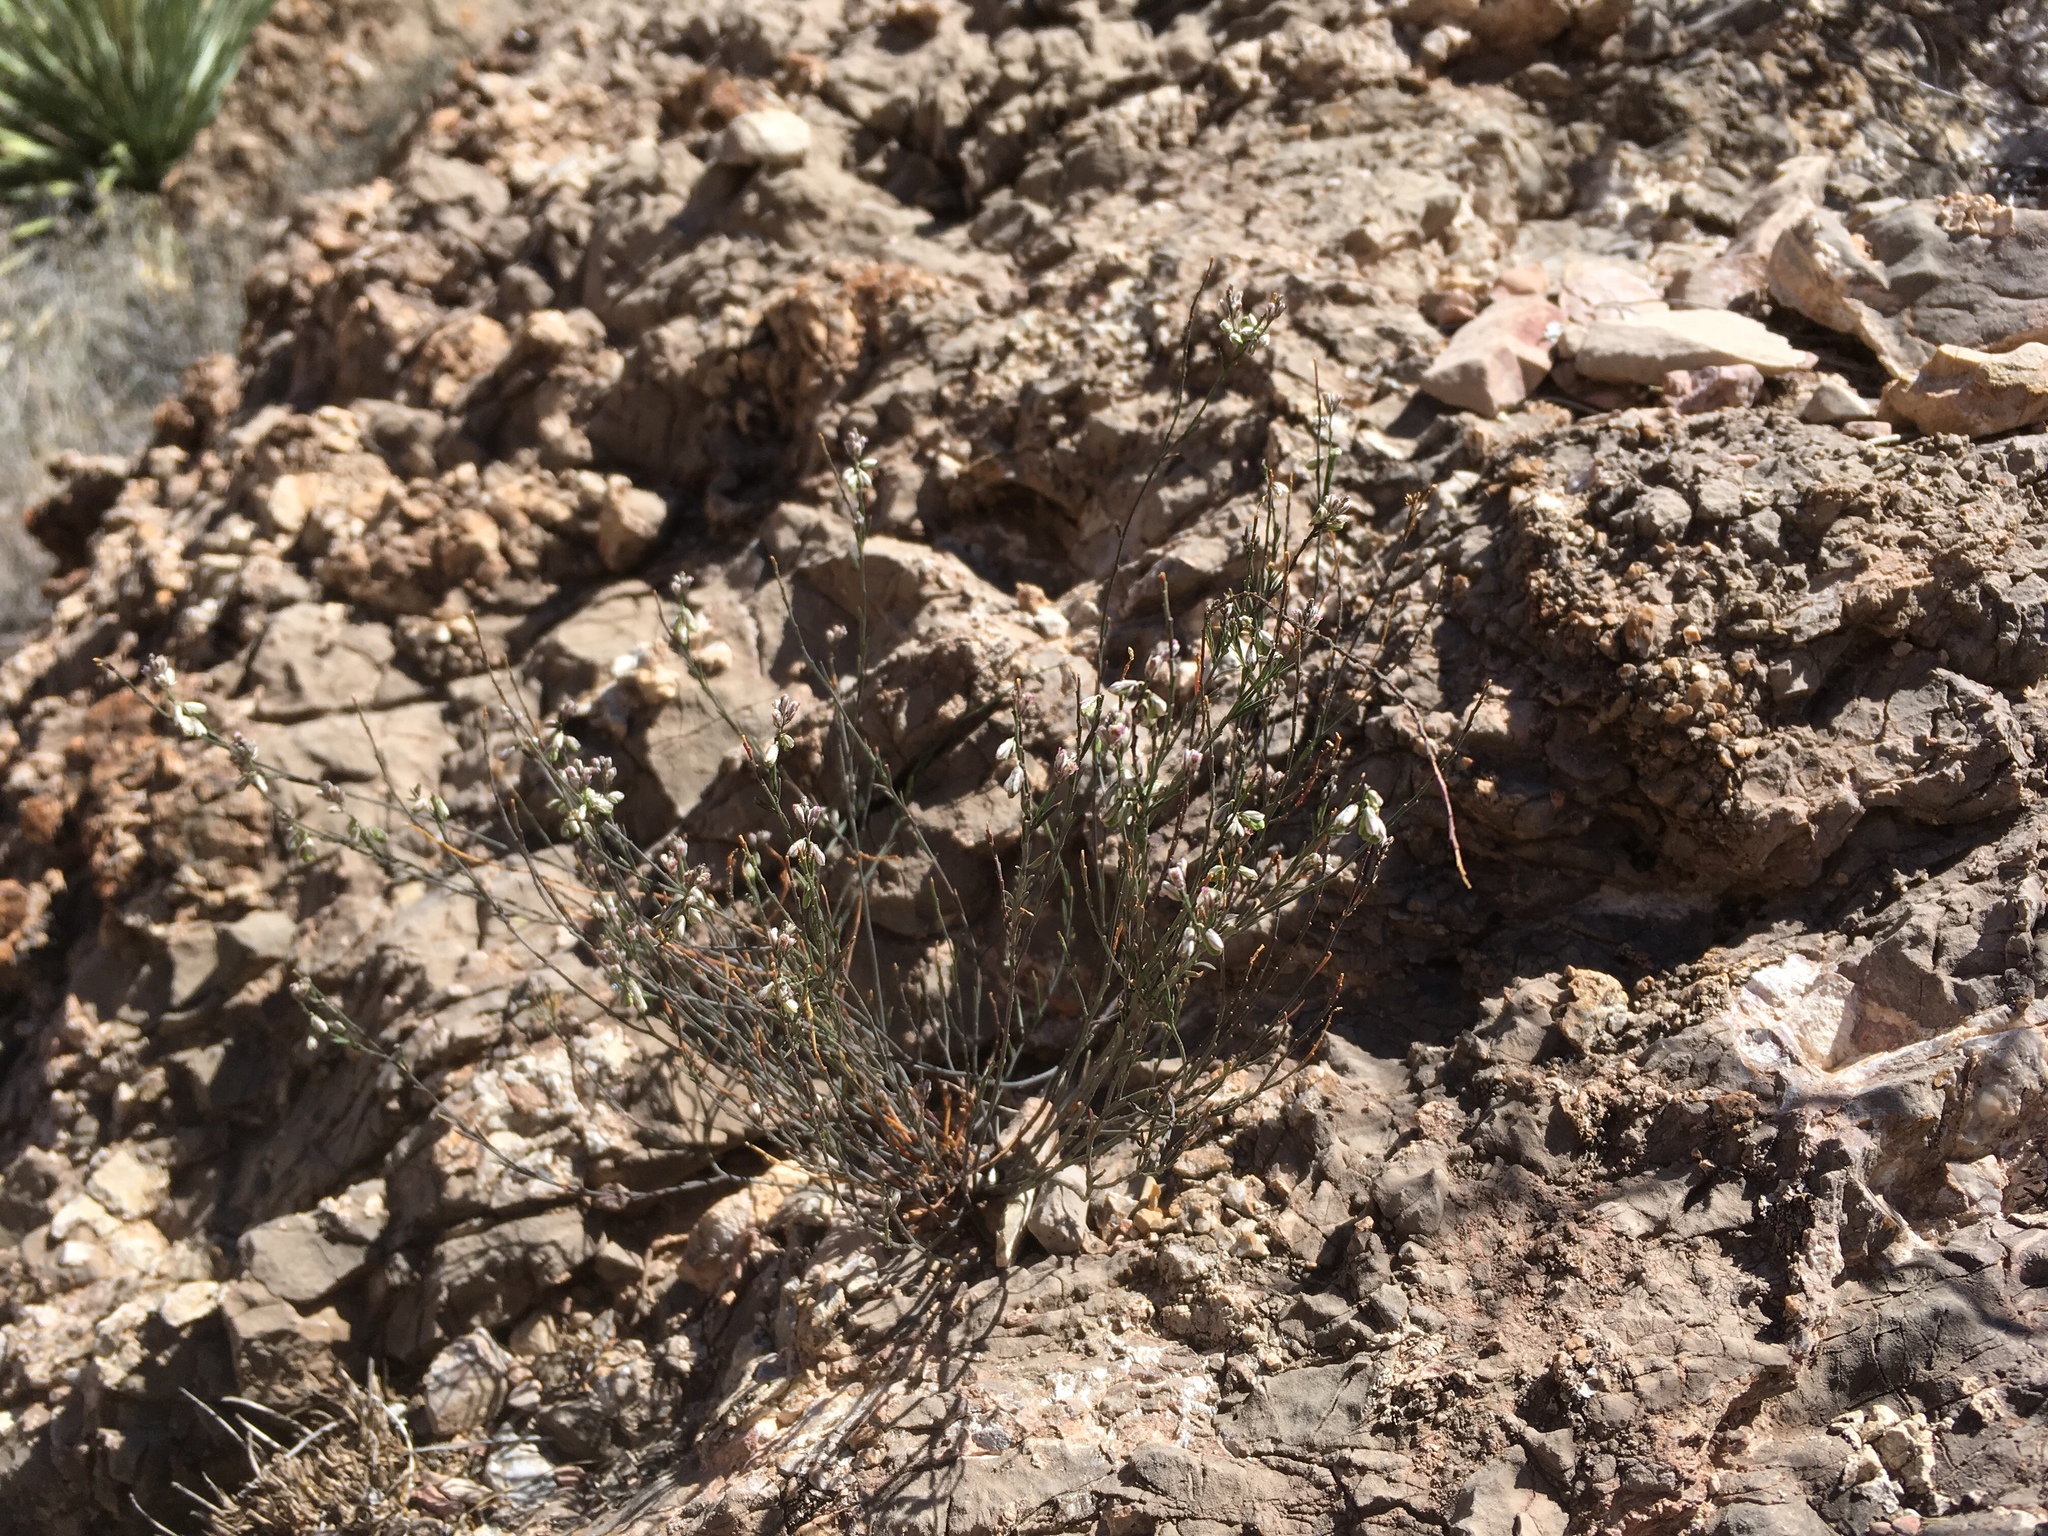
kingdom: Plantae
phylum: Tracheophyta
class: Magnoliopsida
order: Fabales
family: Polygalaceae
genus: Polygala
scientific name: Polygala scoparioides
